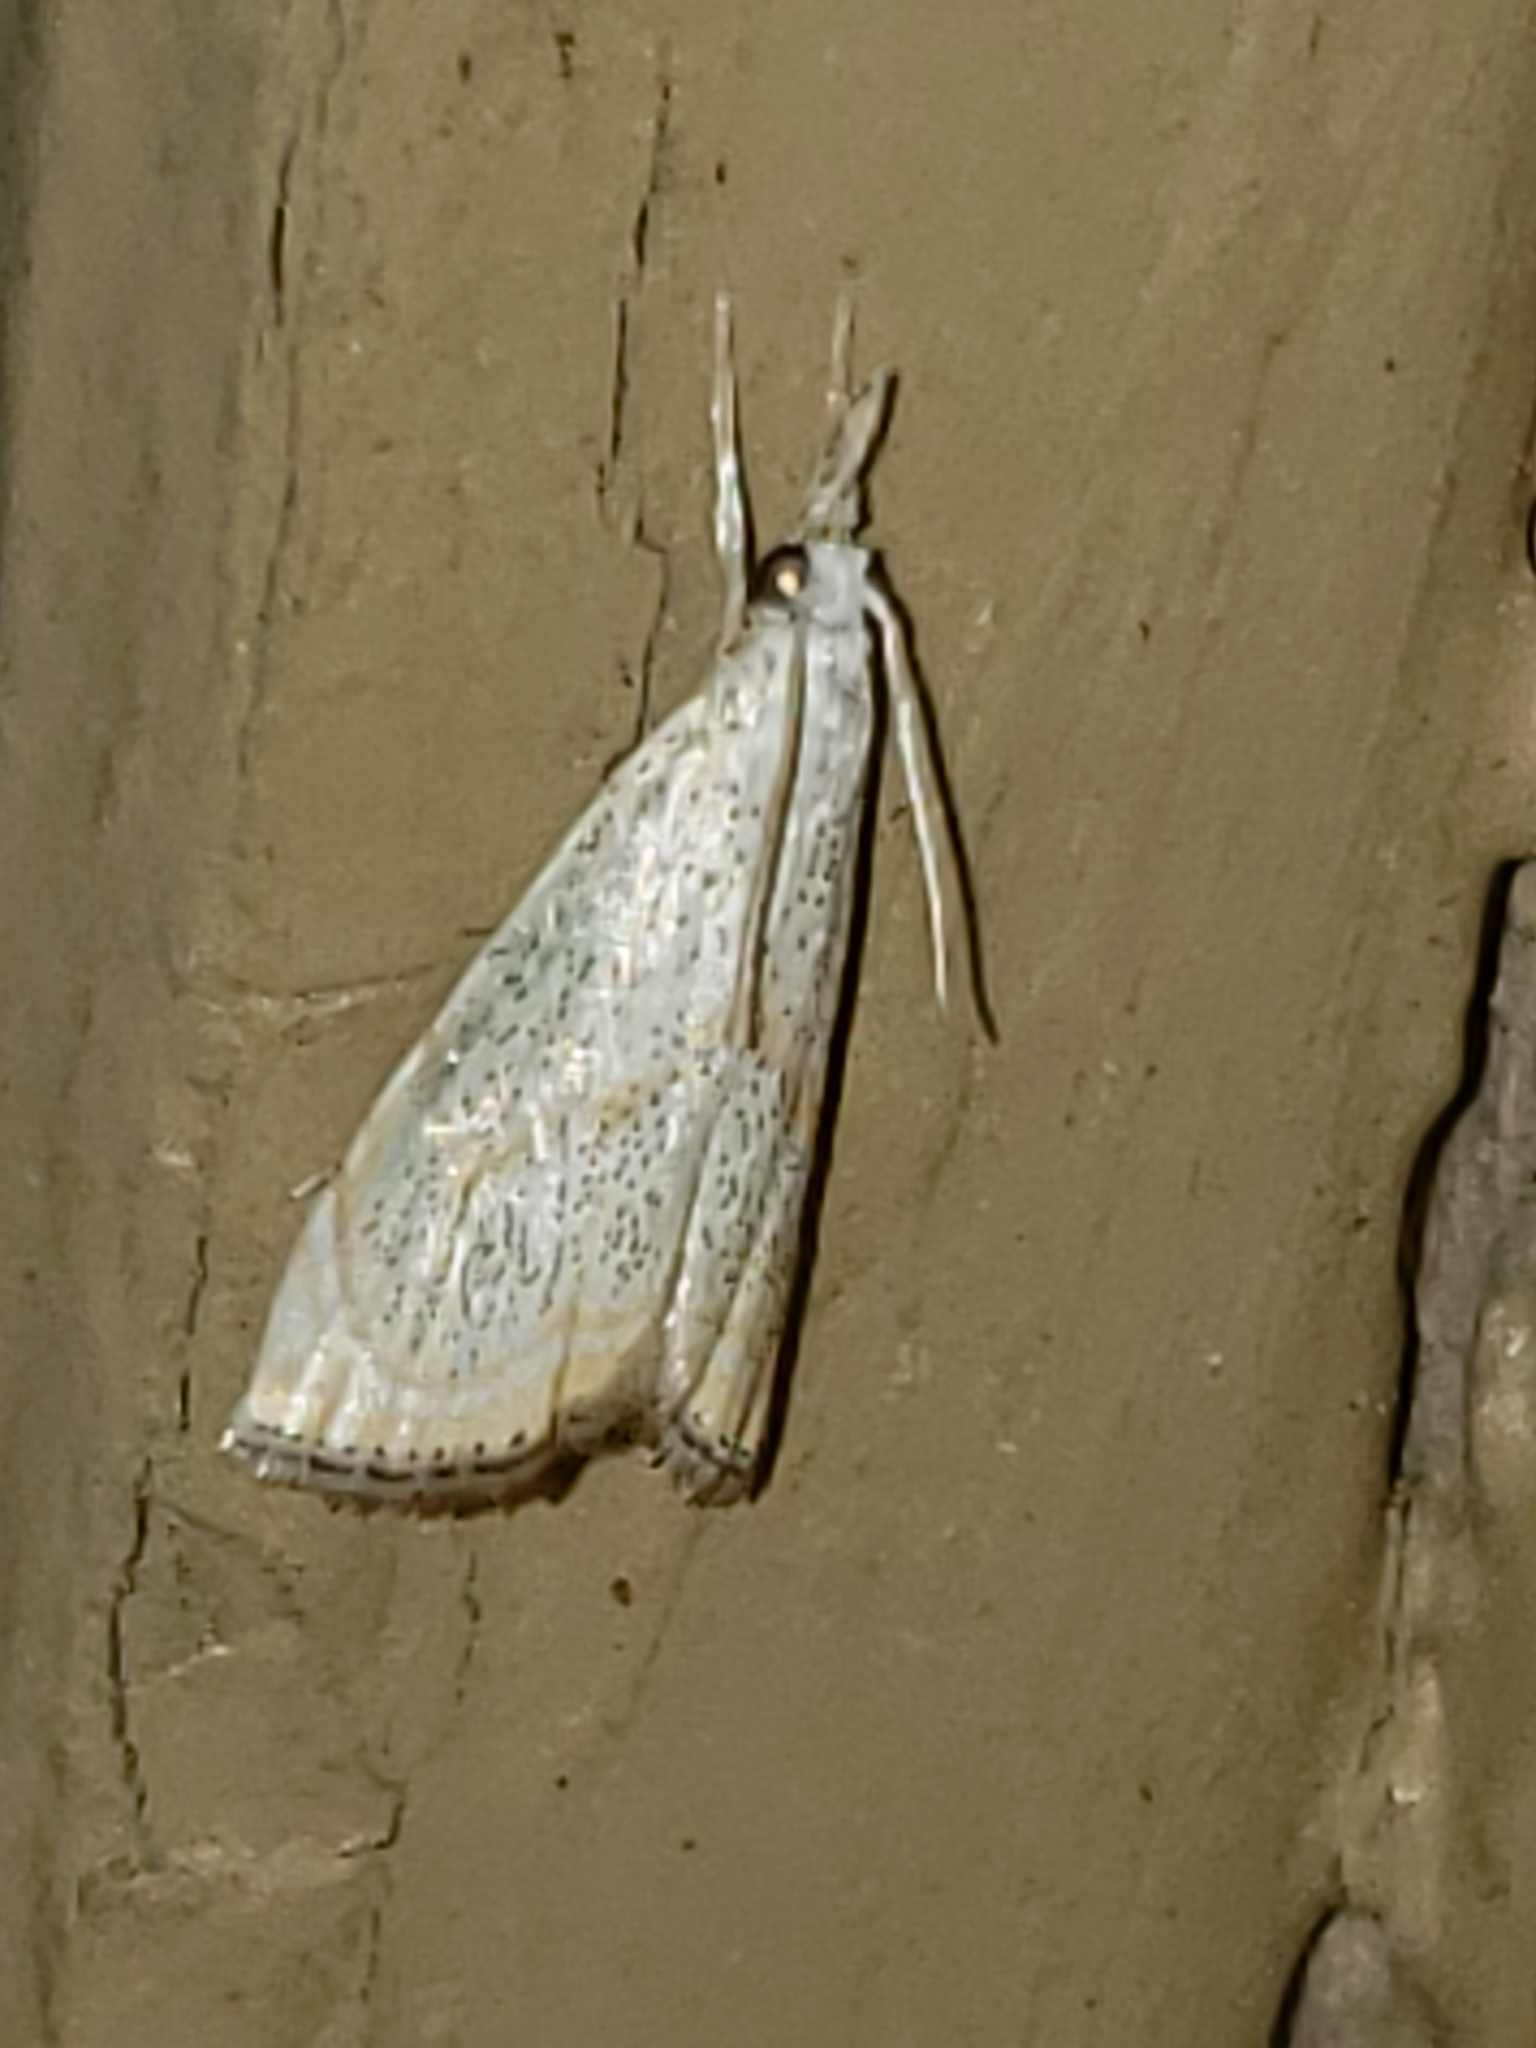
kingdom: Animalia
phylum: Arthropoda
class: Insecta
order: Lepidoptera
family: Crambidae
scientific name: Crambidae
